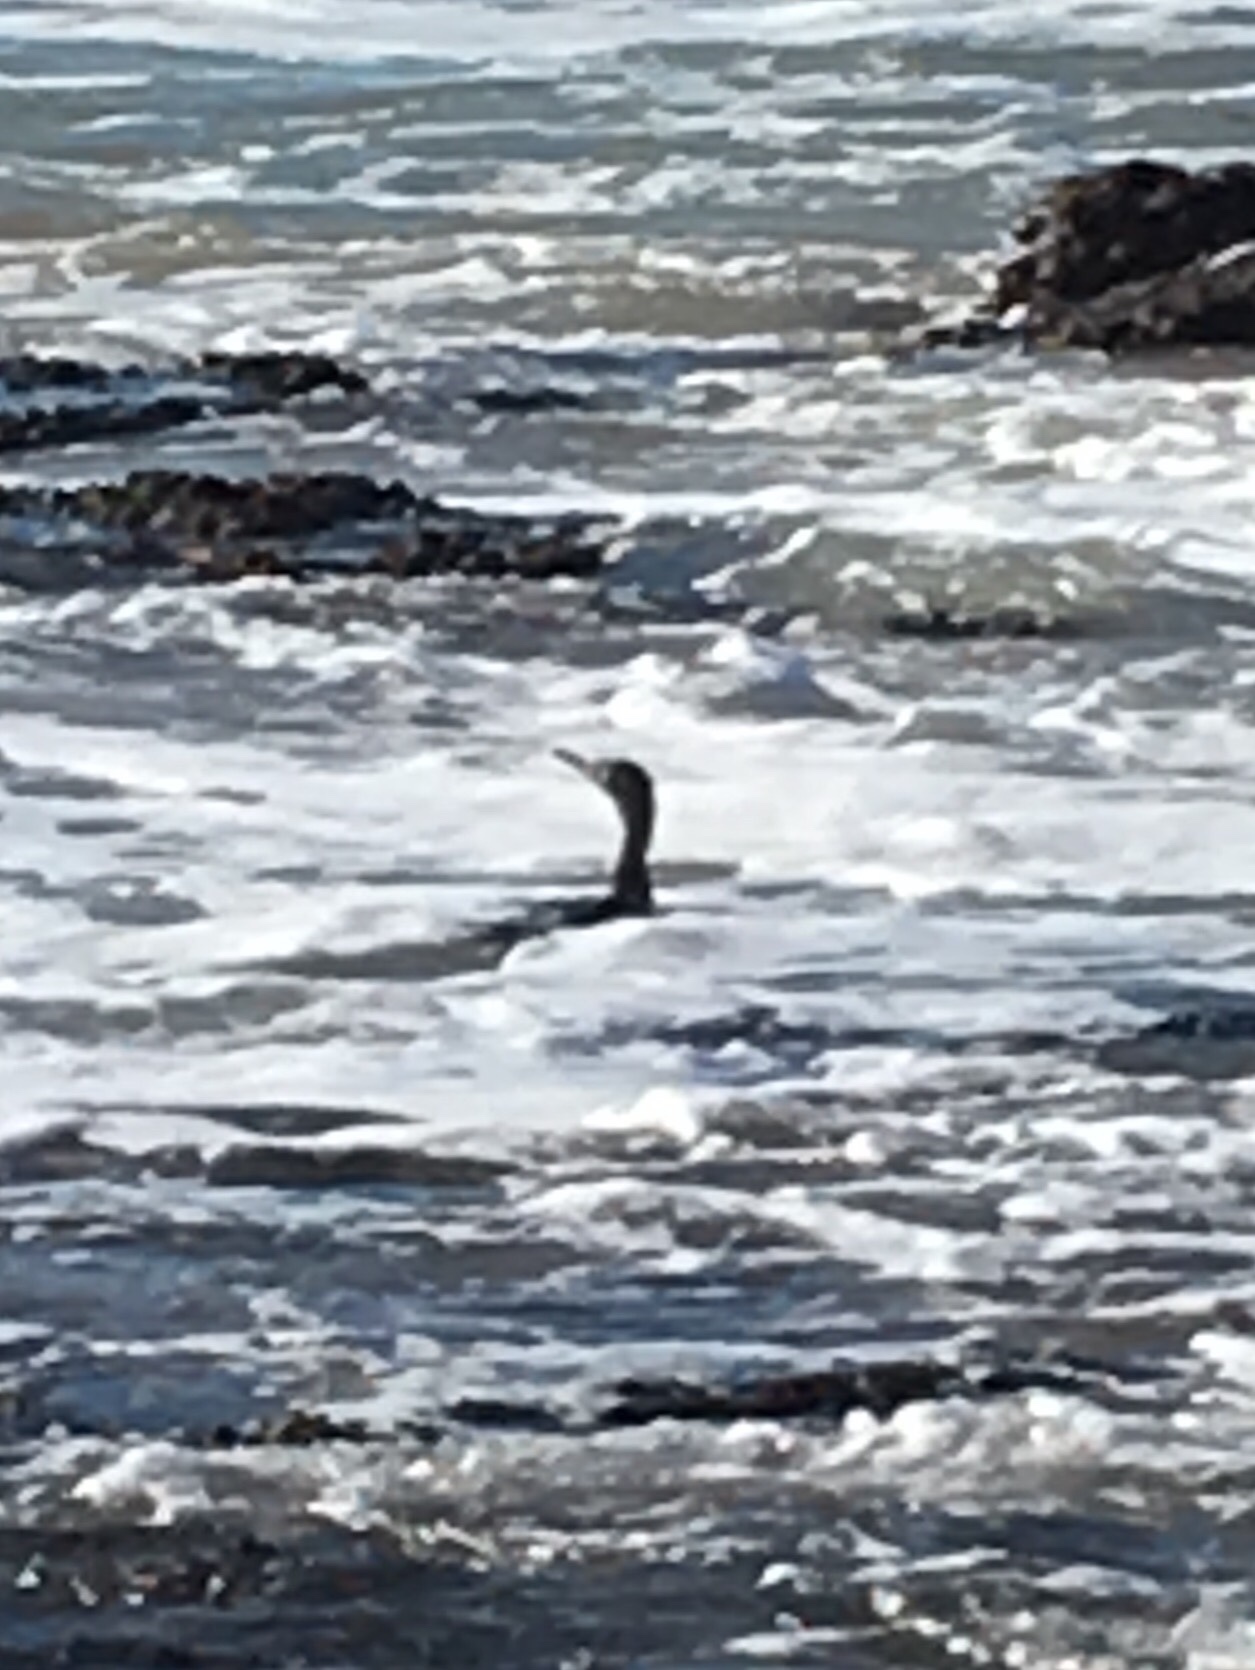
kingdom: Animalia
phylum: Chordata
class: Aves
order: Suliformes
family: Phalacrocoracidae
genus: Phalacrocorax
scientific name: Phalacrocorax sulcirostris
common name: Little black cormorant
